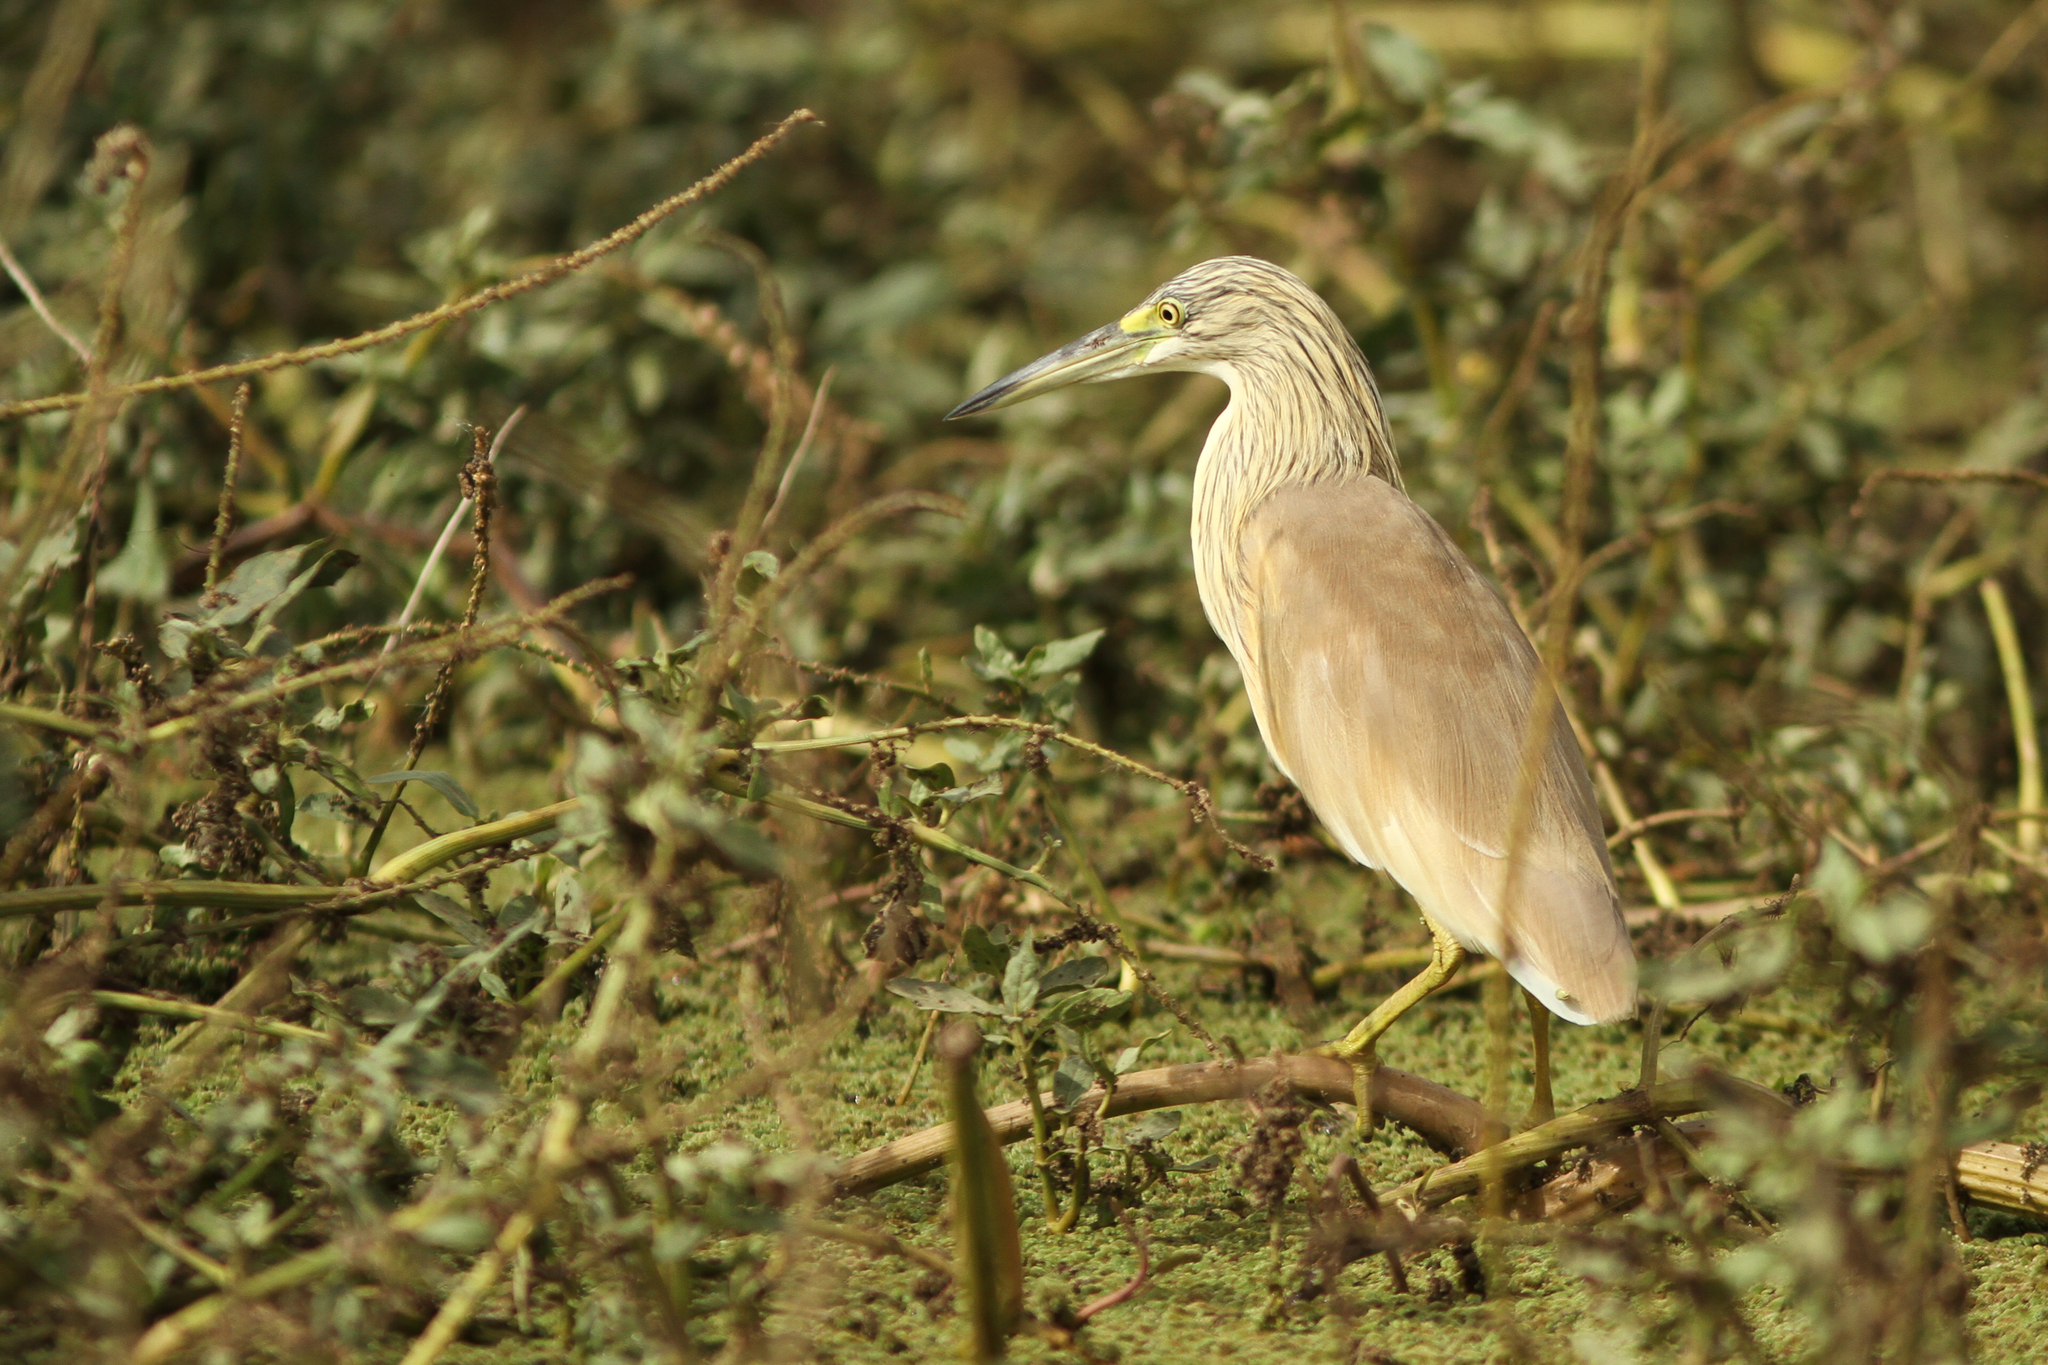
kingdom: Animalia
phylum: Chordata
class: Aves
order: Pelecaniformes
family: Ardeidae
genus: Ardeola
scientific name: Ardeola ralloides
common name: Squacco heron
